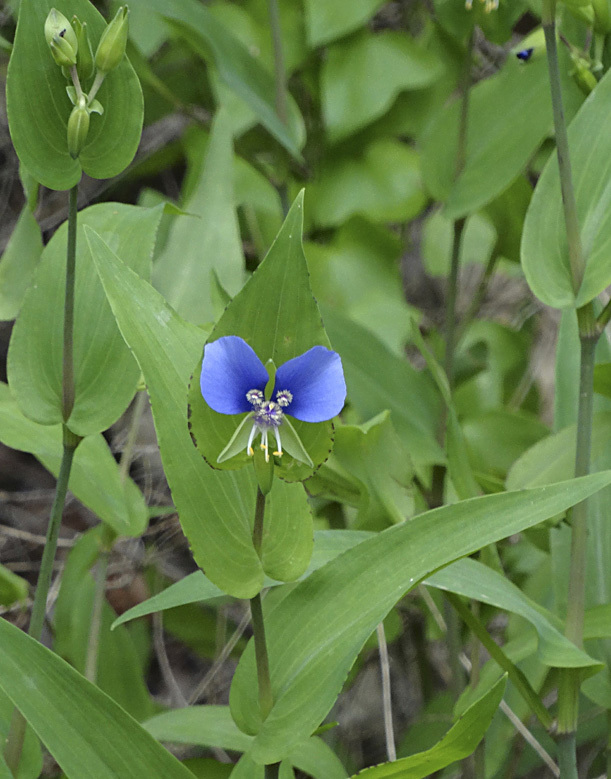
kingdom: Plantae
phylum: Tracheophyta
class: Liliopsida
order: Commelinales
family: Commelinaceae
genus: Tinantia
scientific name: Tinantia anomala
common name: False dayflower
